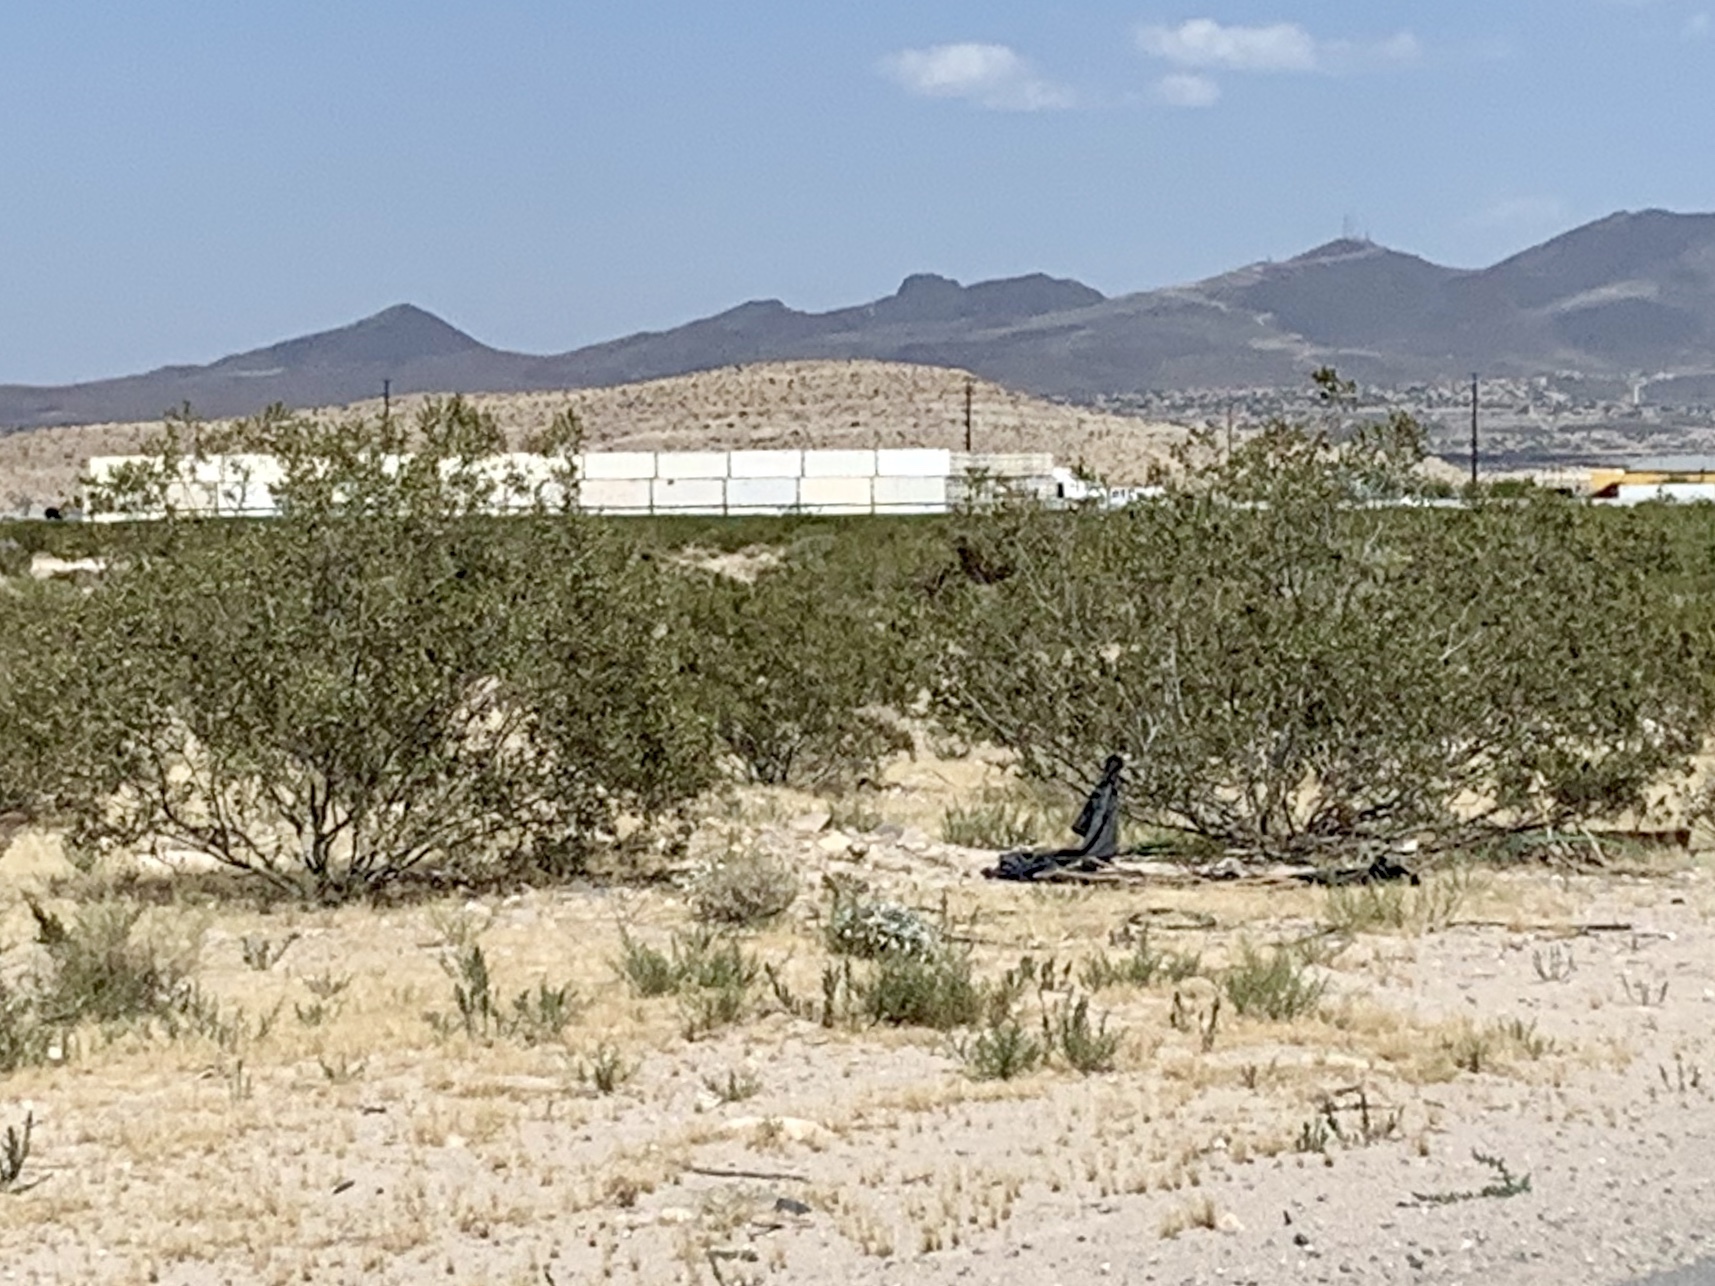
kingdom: Plantae
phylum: Tracheophyta
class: Magnoliopsida
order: Zygophyllales
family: Zygophyllaceae
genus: Larrea
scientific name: Larrea tridentata
